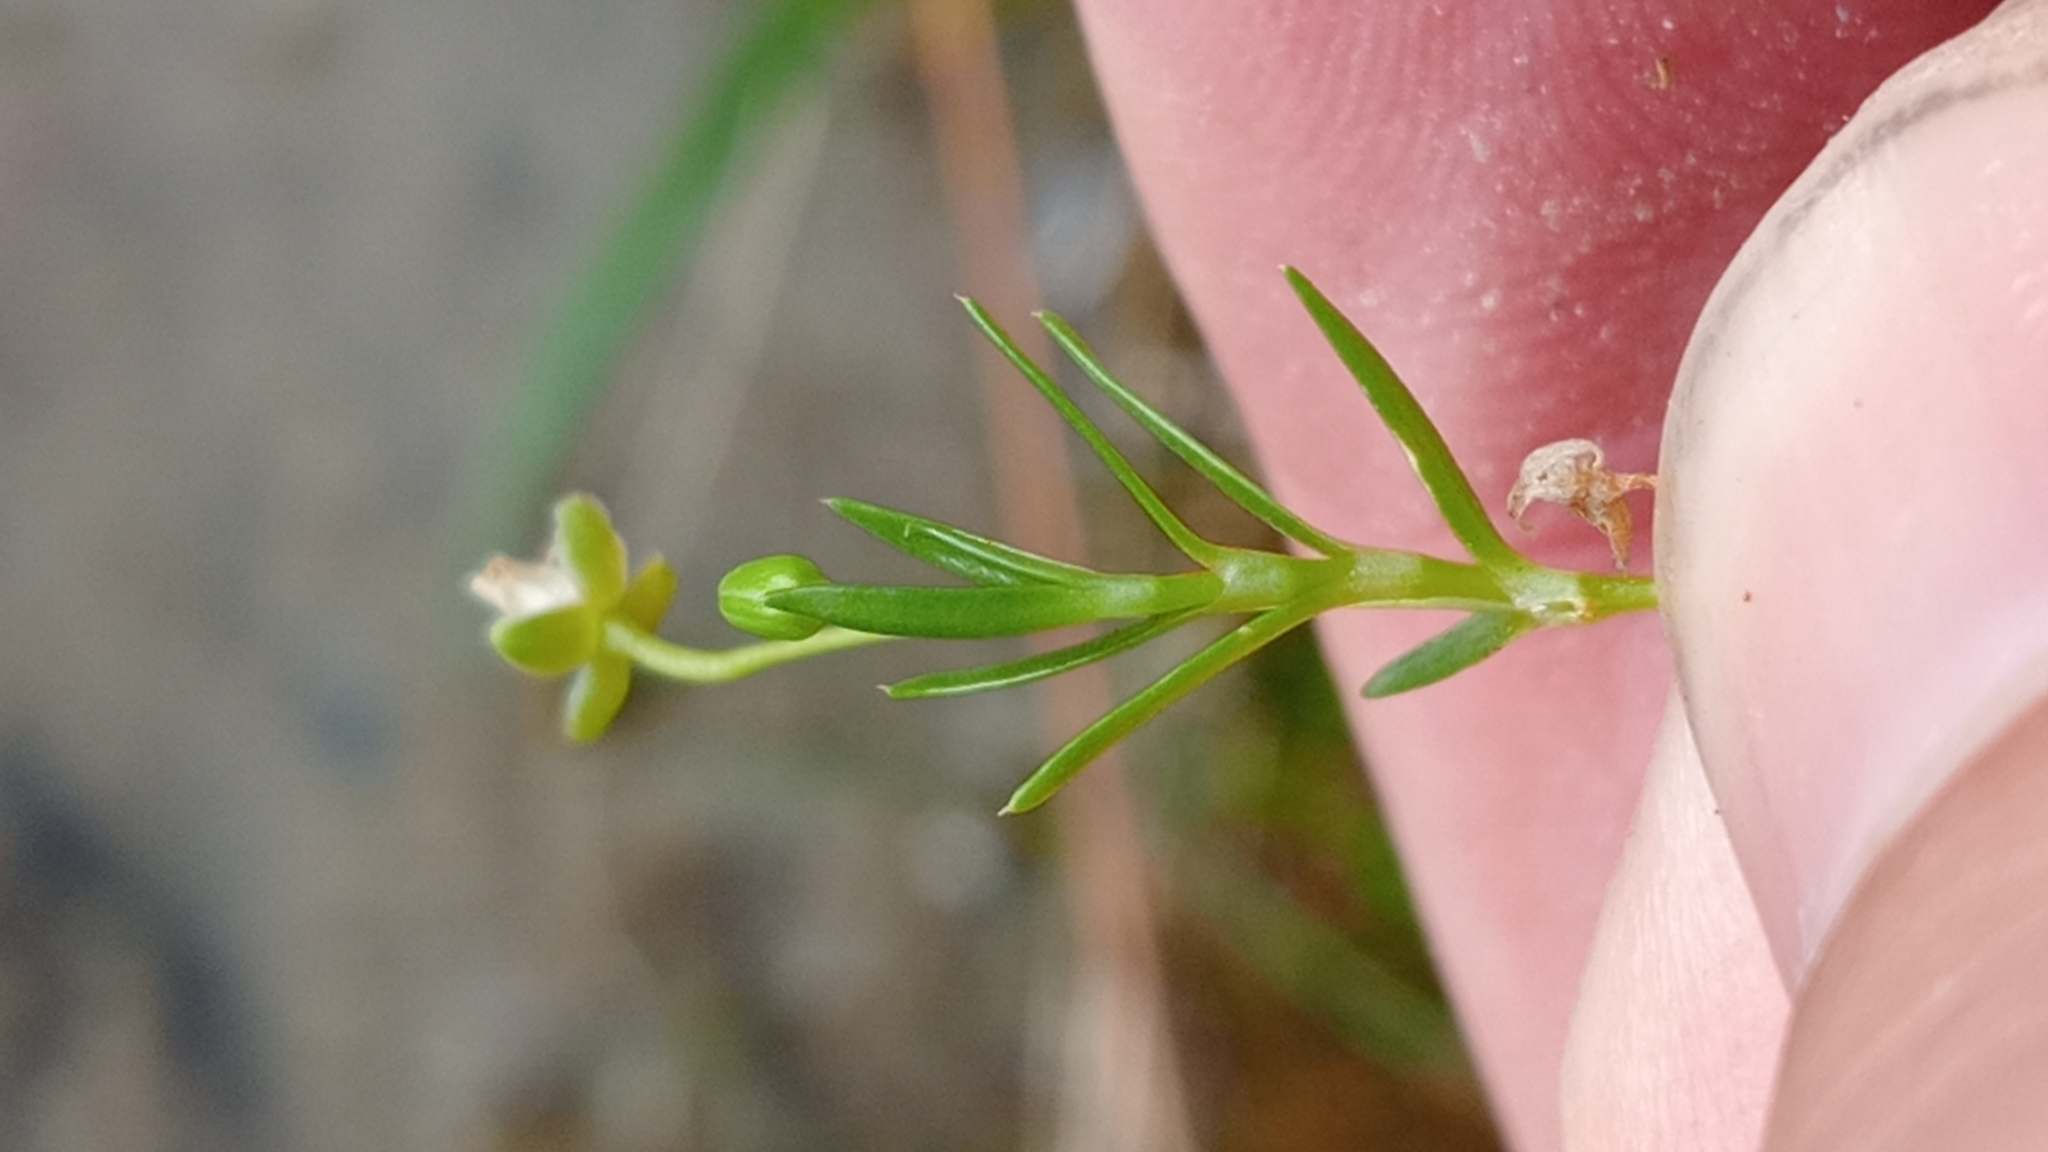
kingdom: Plantae
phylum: Tracheophyta
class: Magnoliopsida
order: Caryophyllales
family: Caryophyllaceae
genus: Sagina
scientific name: Sagina procumbens
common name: Procumbent pearlwort
